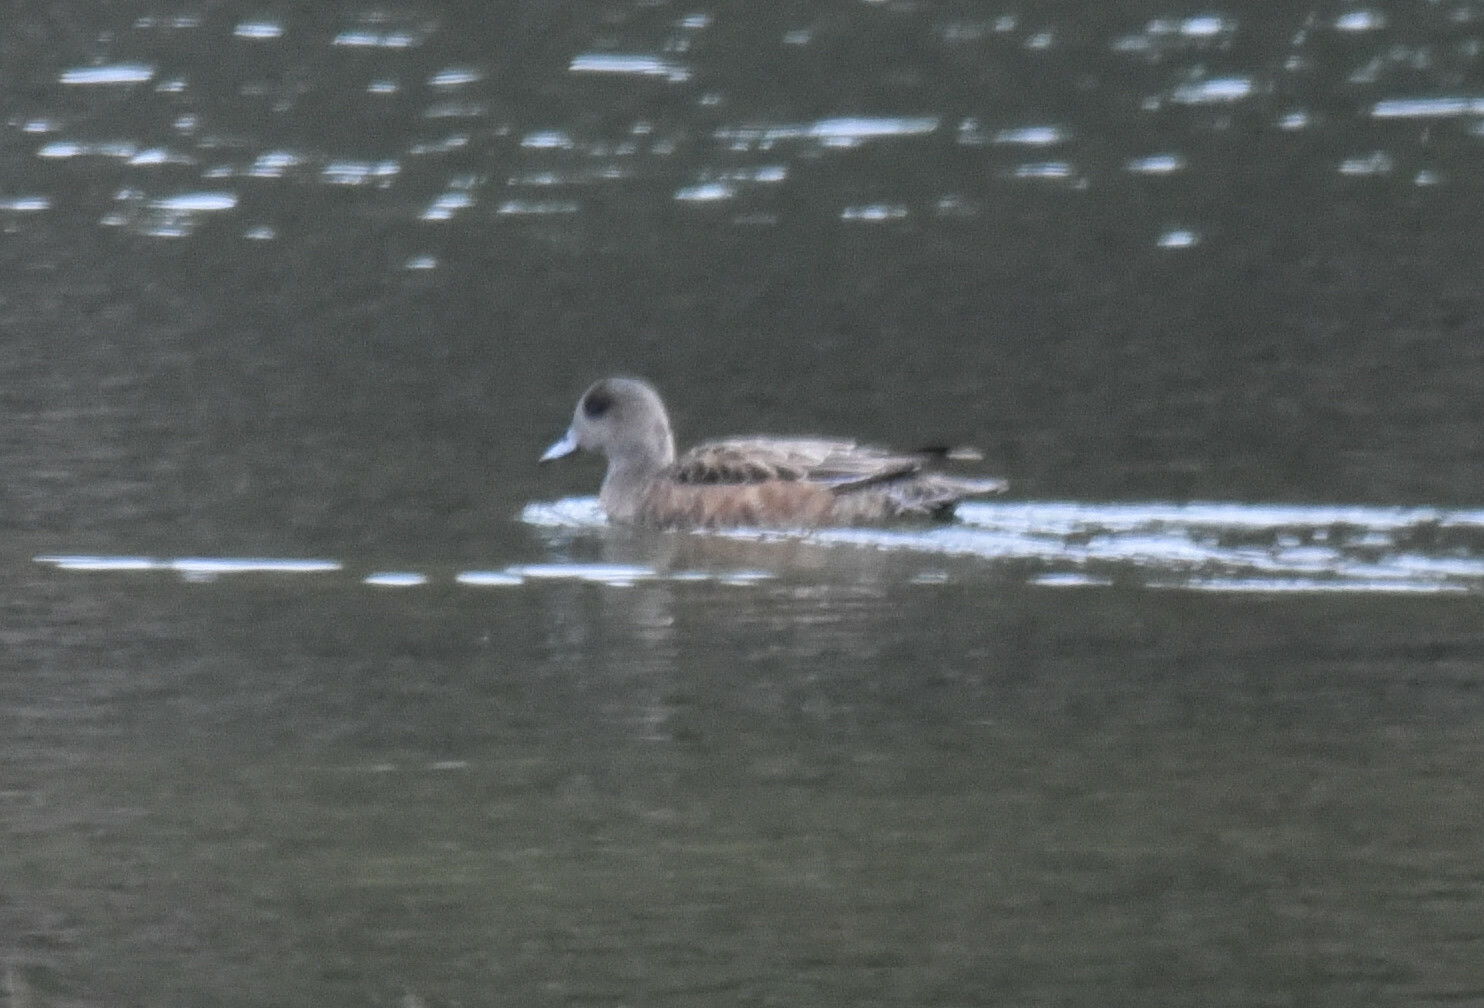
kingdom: Animalia
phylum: Chordata
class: Aves
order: Anseriformes
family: Anatidae
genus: Mareca
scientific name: Mareca americana
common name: American wigeon
